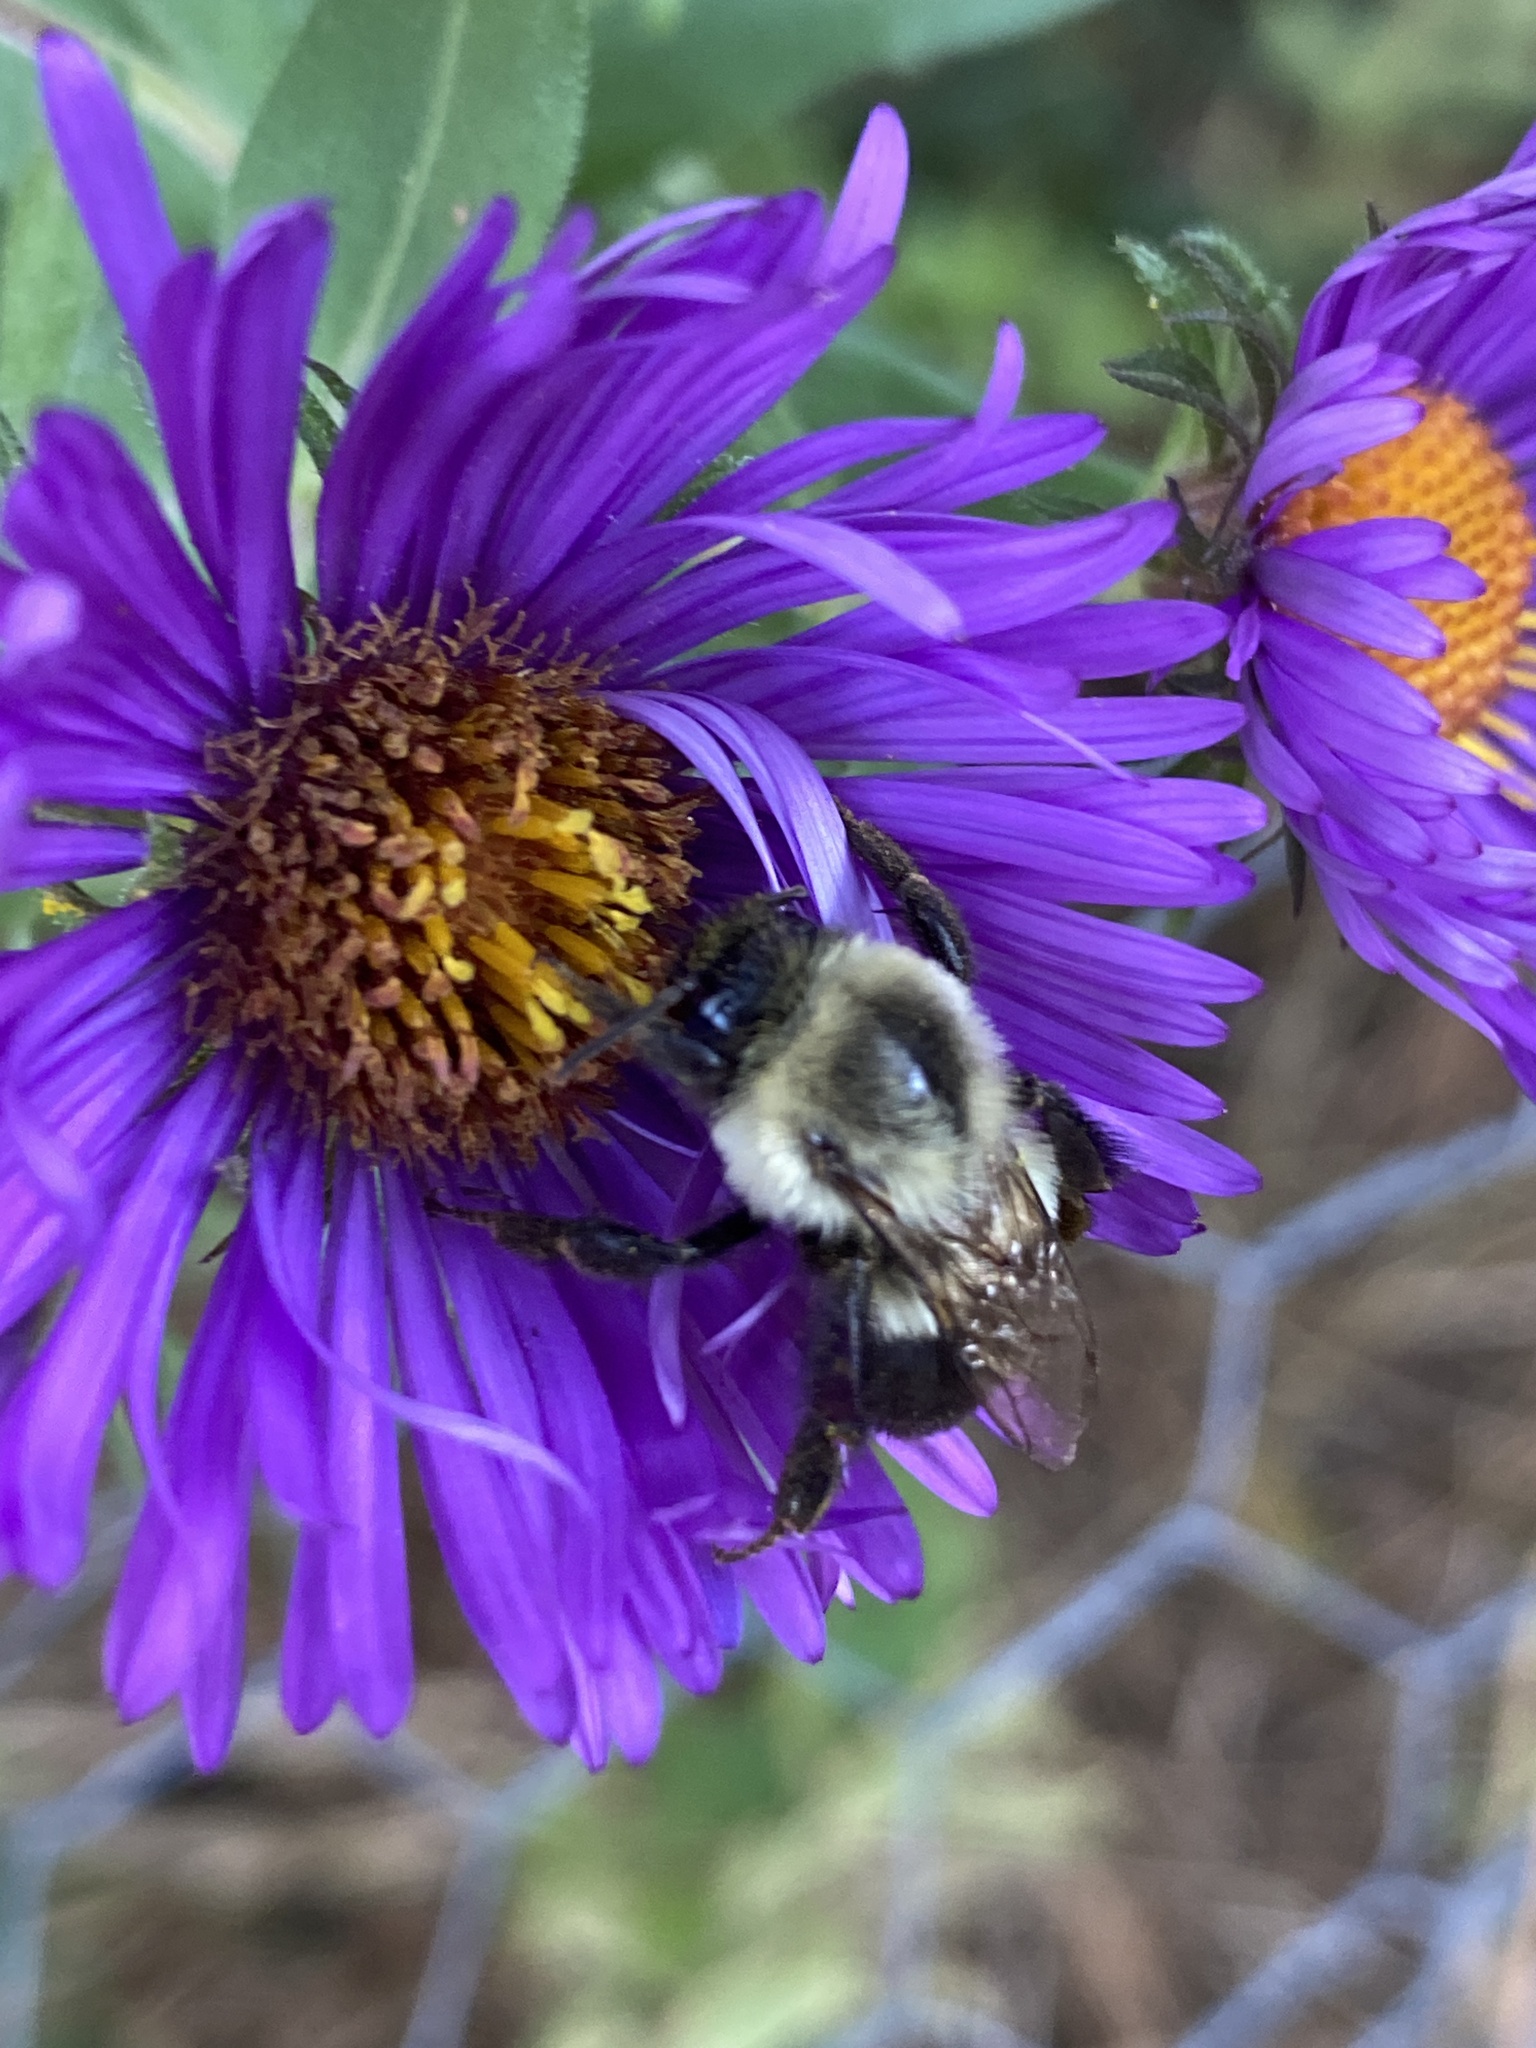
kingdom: Animalia
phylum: Arthropoda
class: Insecta
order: Hymenoptera
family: Apidae
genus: Bombus
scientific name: Bombus impatiens
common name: Common eastern bumble bee
